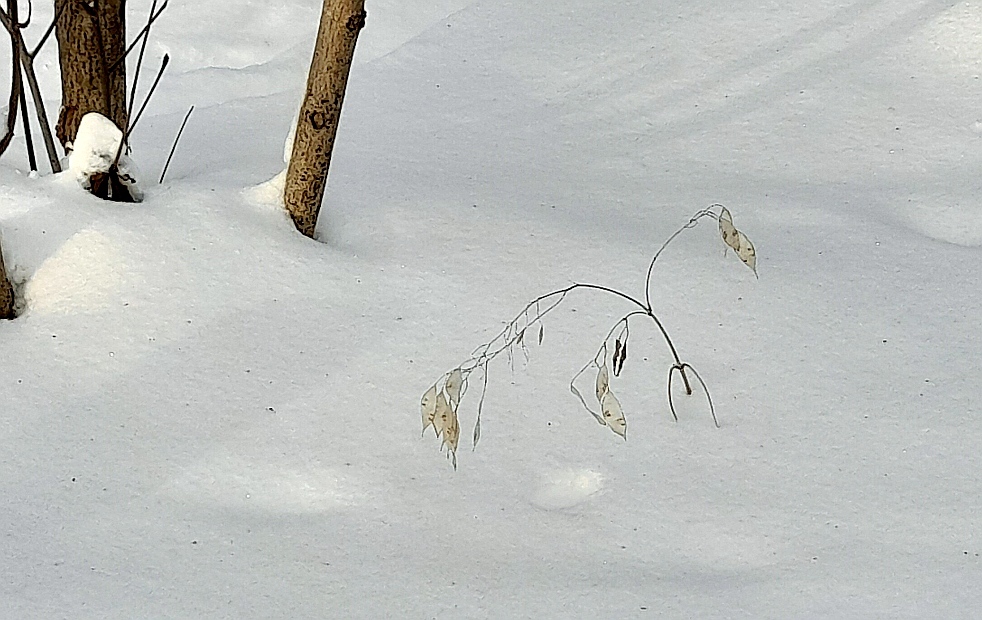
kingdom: Plantae
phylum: Tracheophyta
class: Magnoliopsida
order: Brassicales
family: Brassicaceae
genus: Lunaria
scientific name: Lunaria rediviva
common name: Perennial honesty
